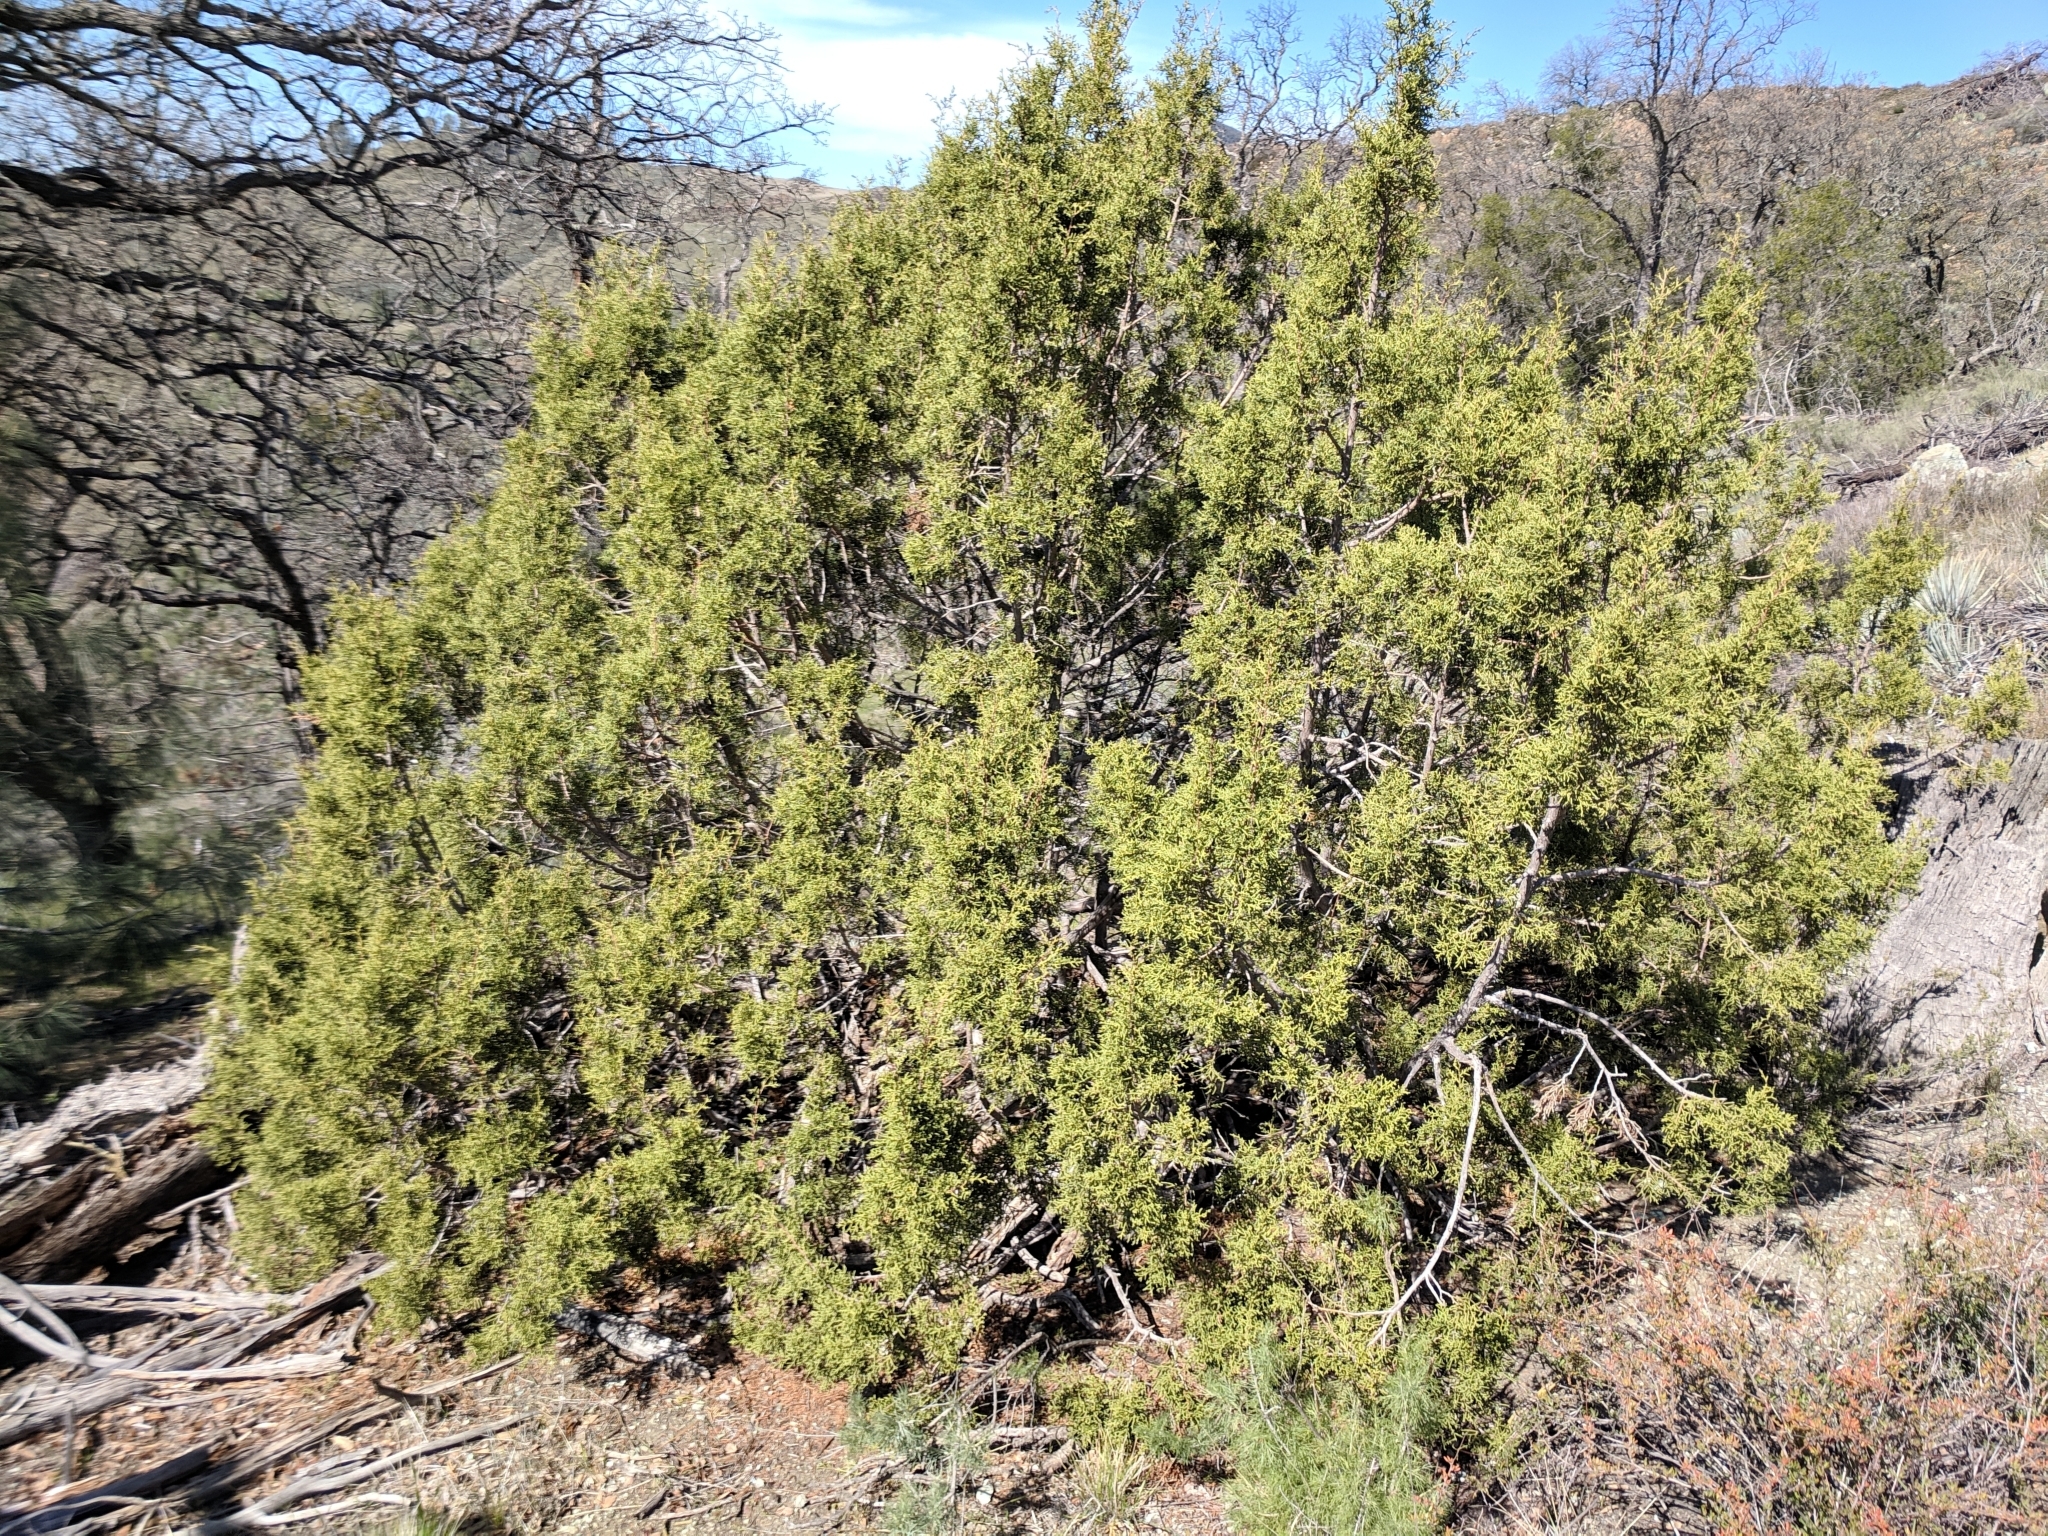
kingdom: Plantae
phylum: Tracheophyta
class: Pinopsida
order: Pinales
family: Cupressaceae
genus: Juniperus
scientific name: Juniperus californica
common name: California juniper
